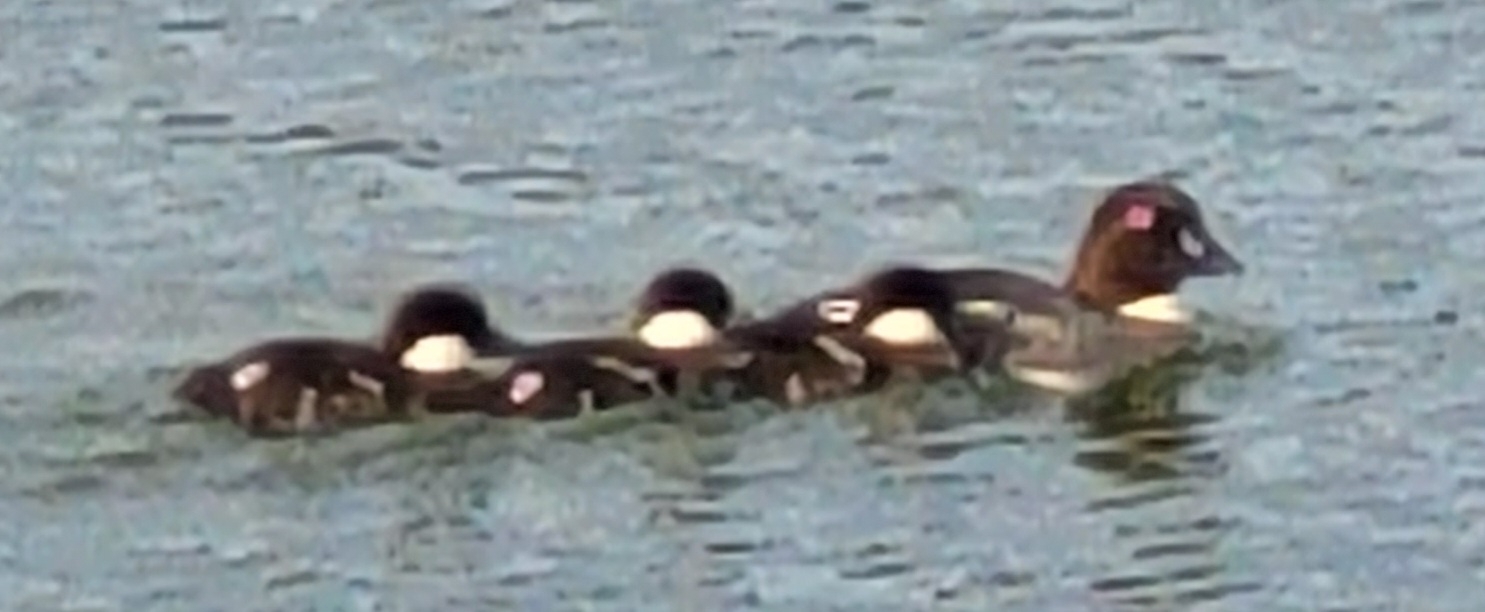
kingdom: Animalia
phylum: Chordata
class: Aves
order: Anseriformes
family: Anatidae
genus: Bucephala
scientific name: Bucephala clangula
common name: Common goldeneye
